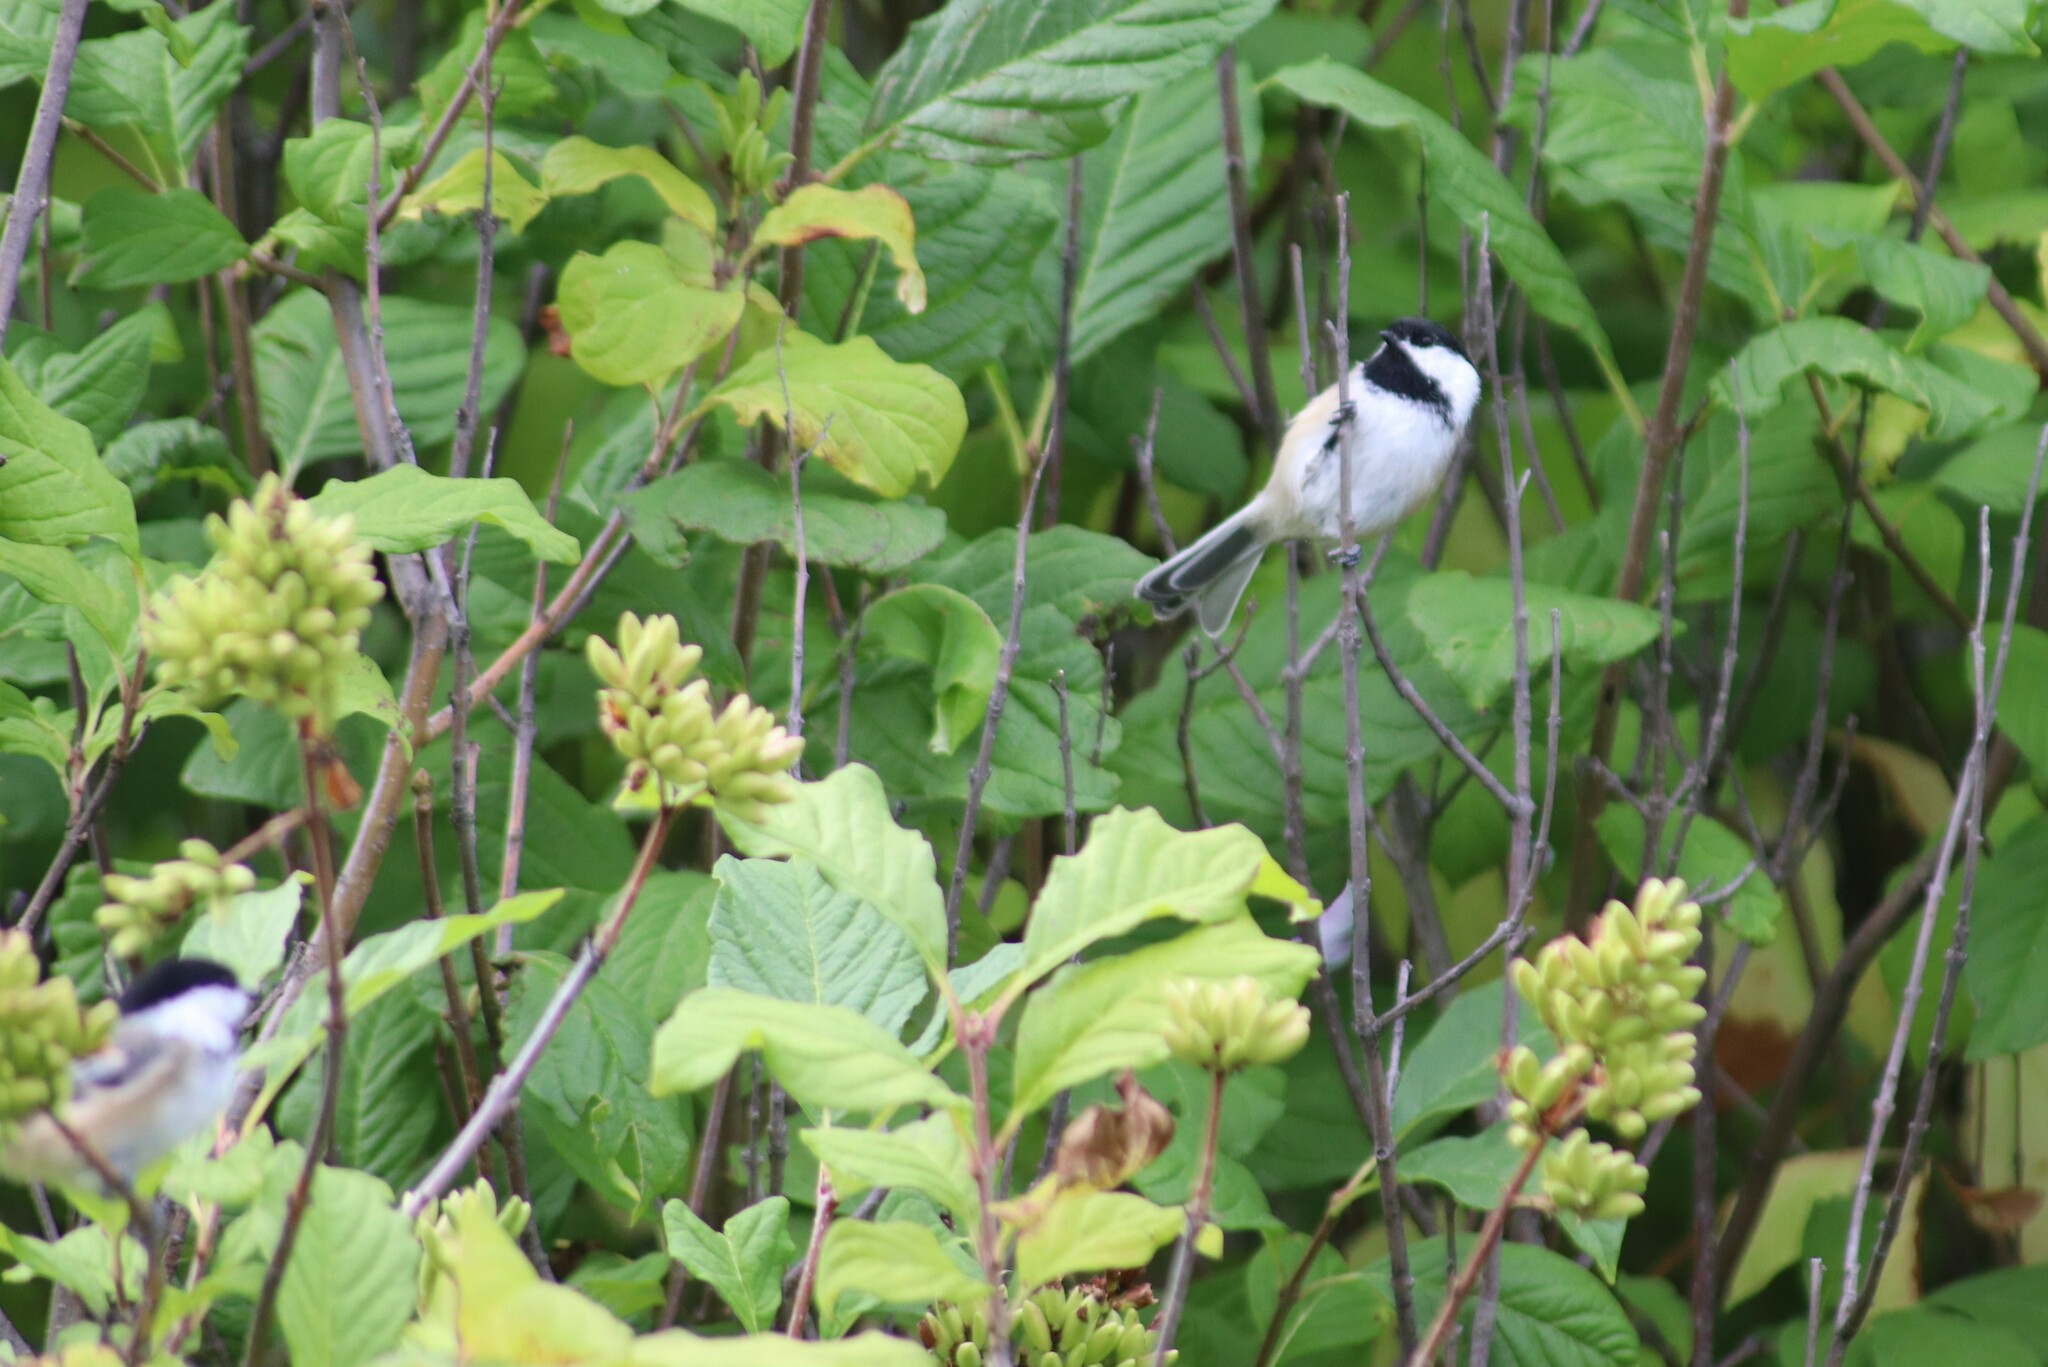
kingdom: Animalia
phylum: Chordata
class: Aves
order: Passeriformes
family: Paridae
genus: Poecile
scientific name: Poecile atricapillus
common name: Black-capped chickadee
